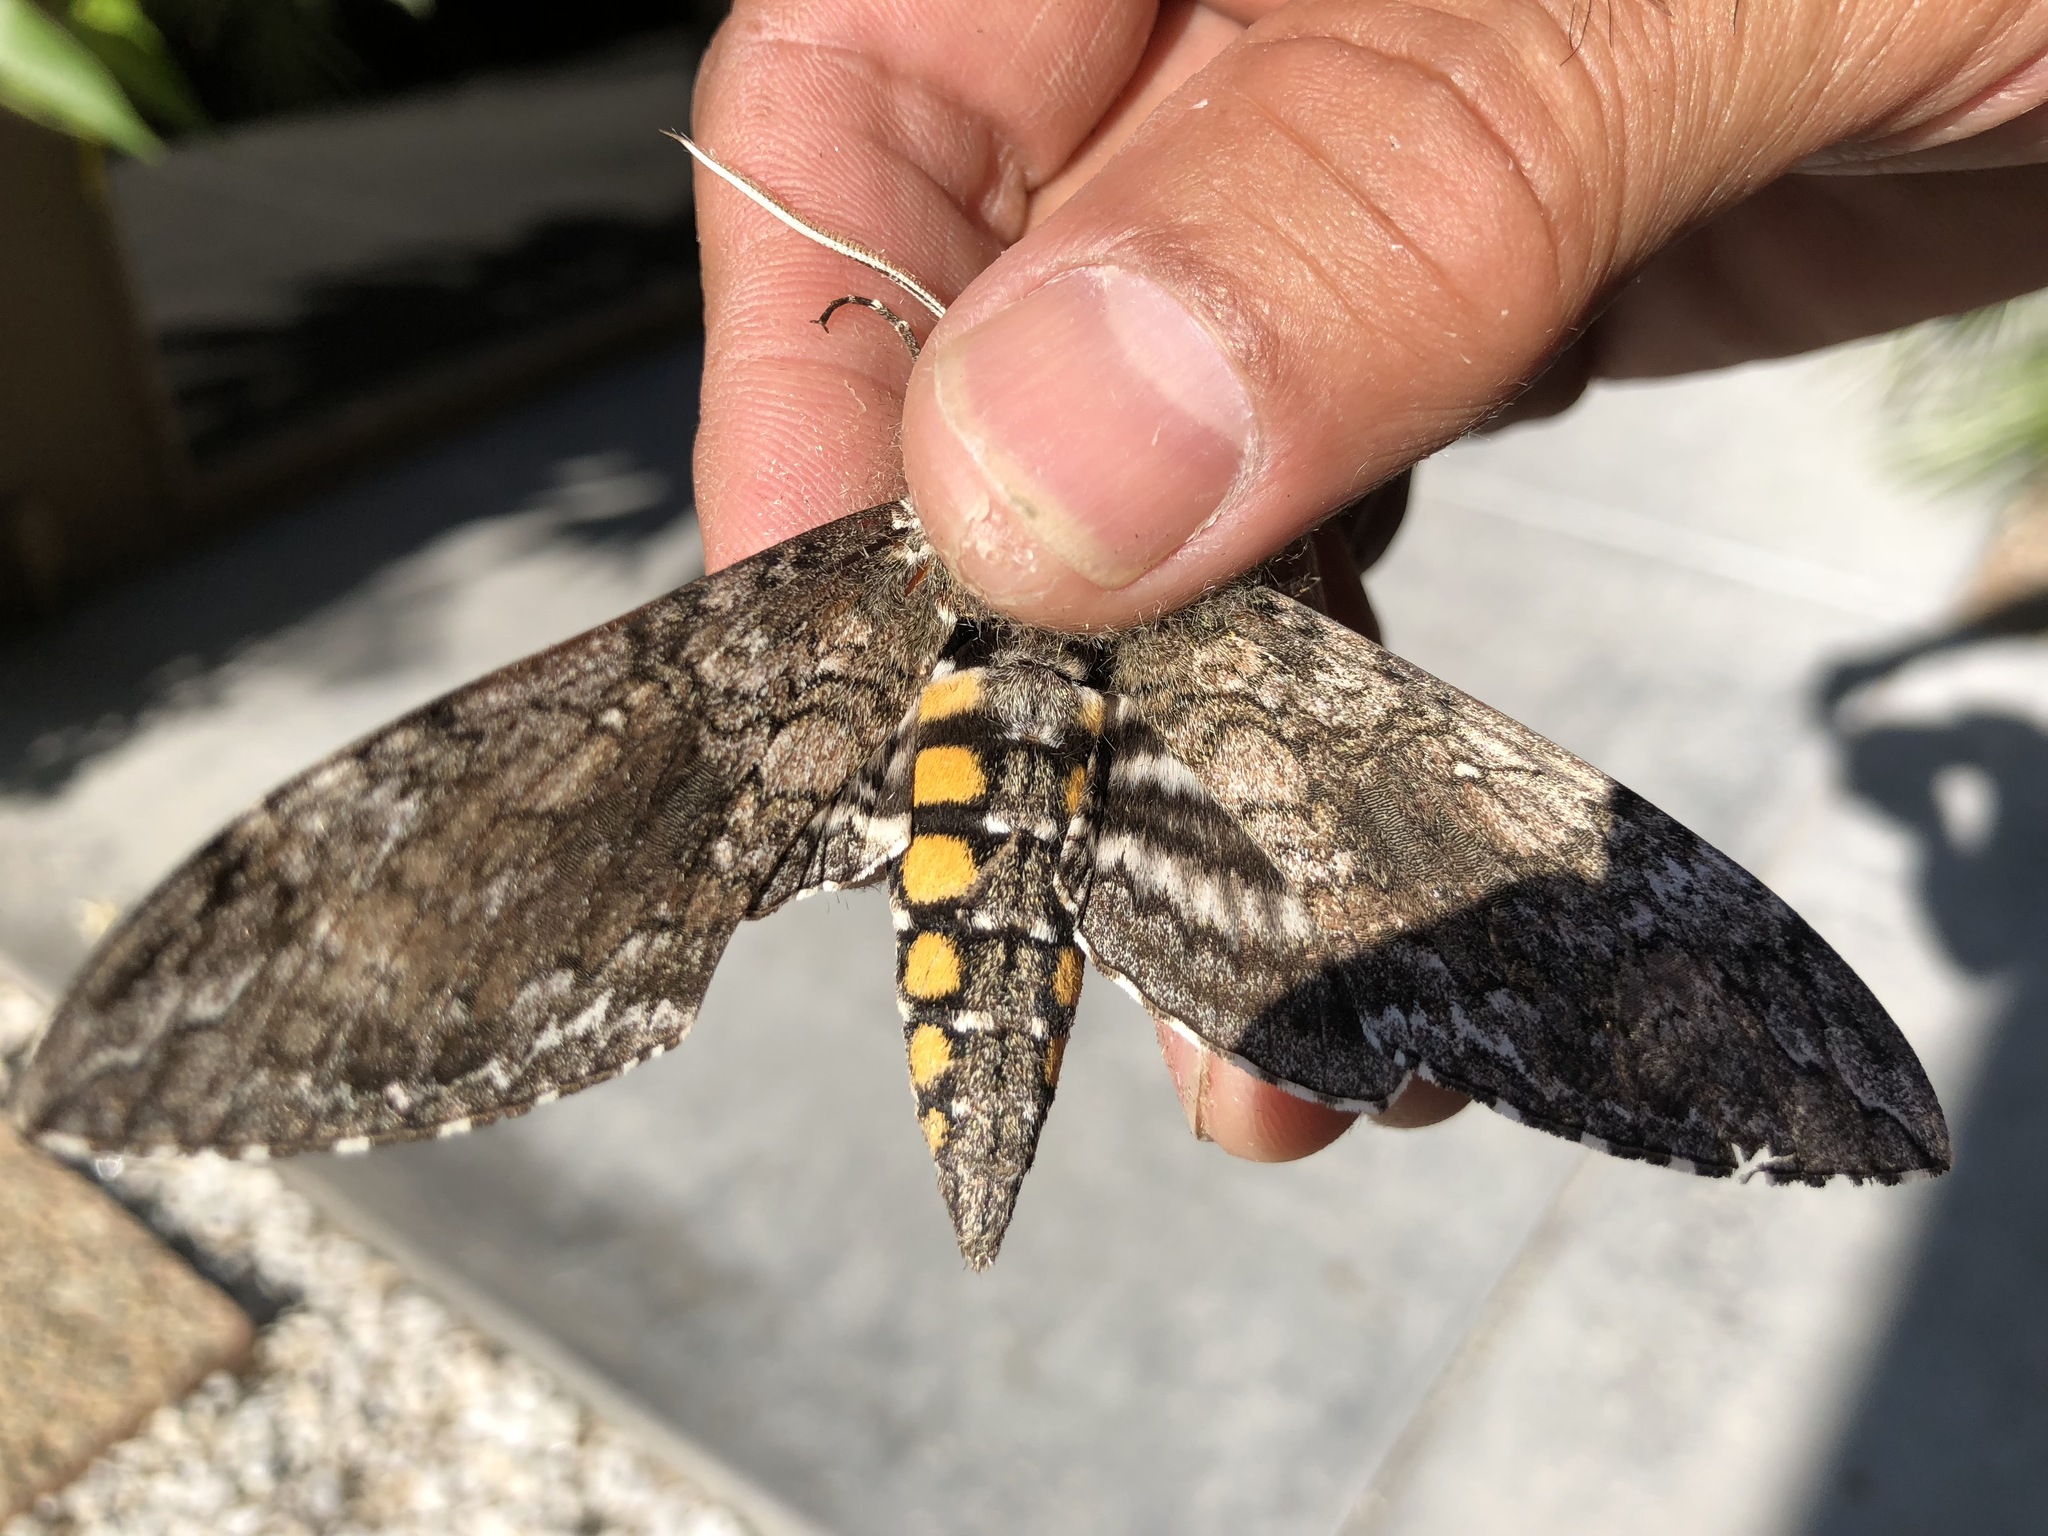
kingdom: Animalia
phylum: Arthropoda
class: Insecta
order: Lepidoptera
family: Sphingidae
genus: Manduca
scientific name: Manduca sexta
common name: Carolina sphinx
